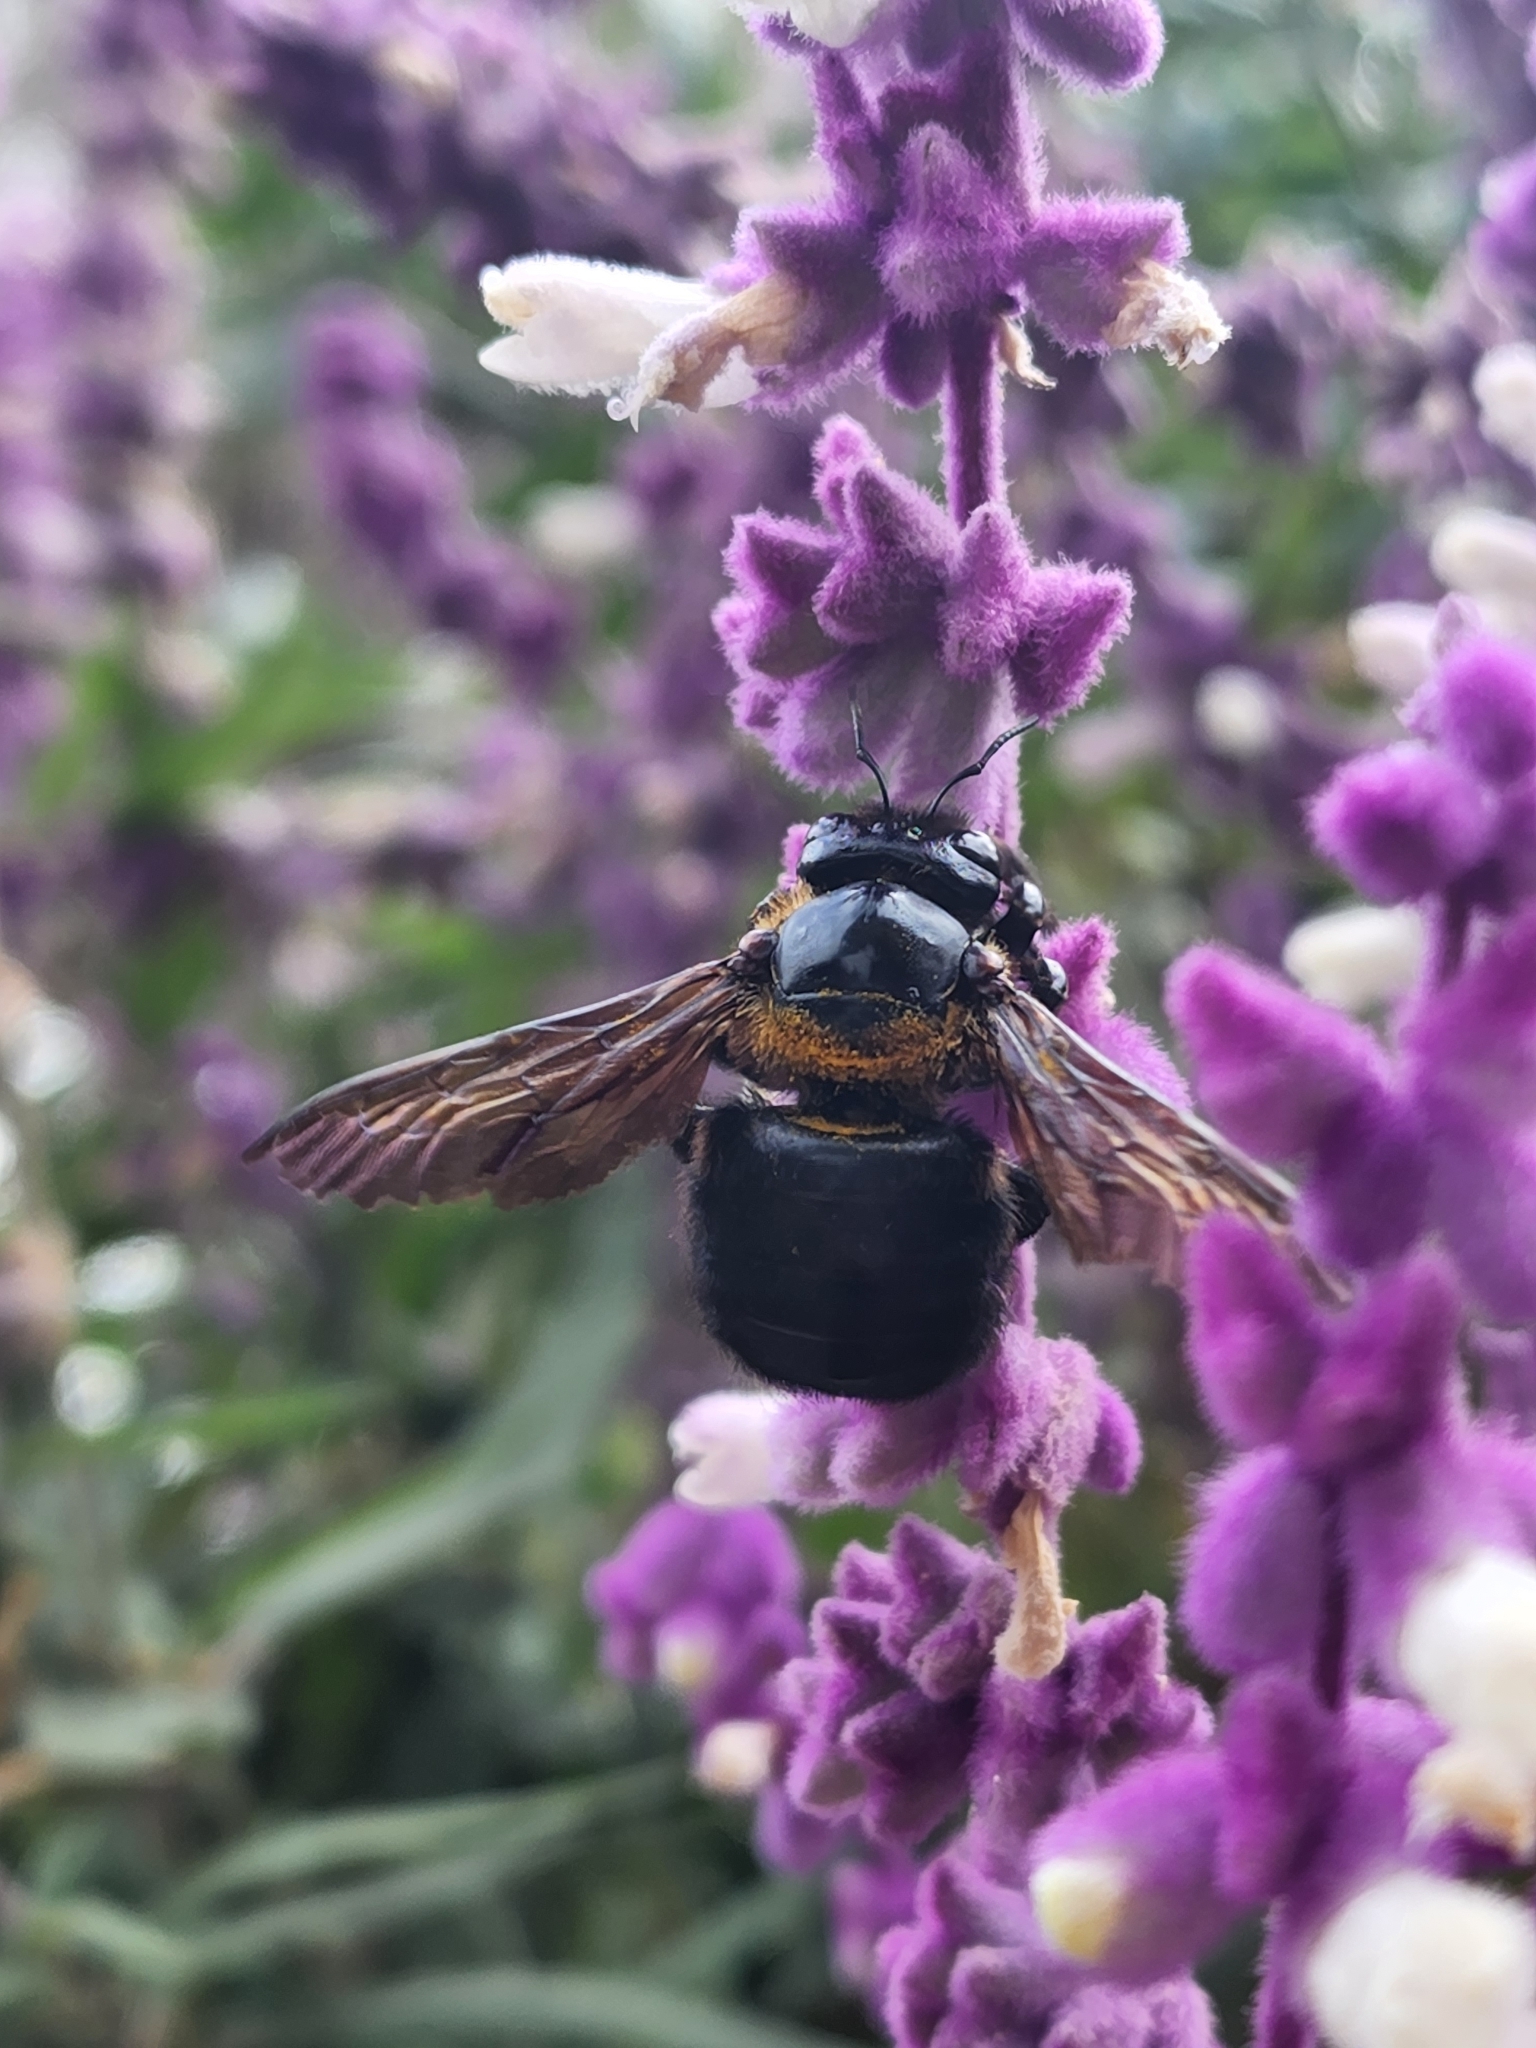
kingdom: Animalia
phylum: Arthropoda
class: Insecta
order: Hymenoptera
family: Apidae
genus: Xylocopa
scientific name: Xylocopa eximia
